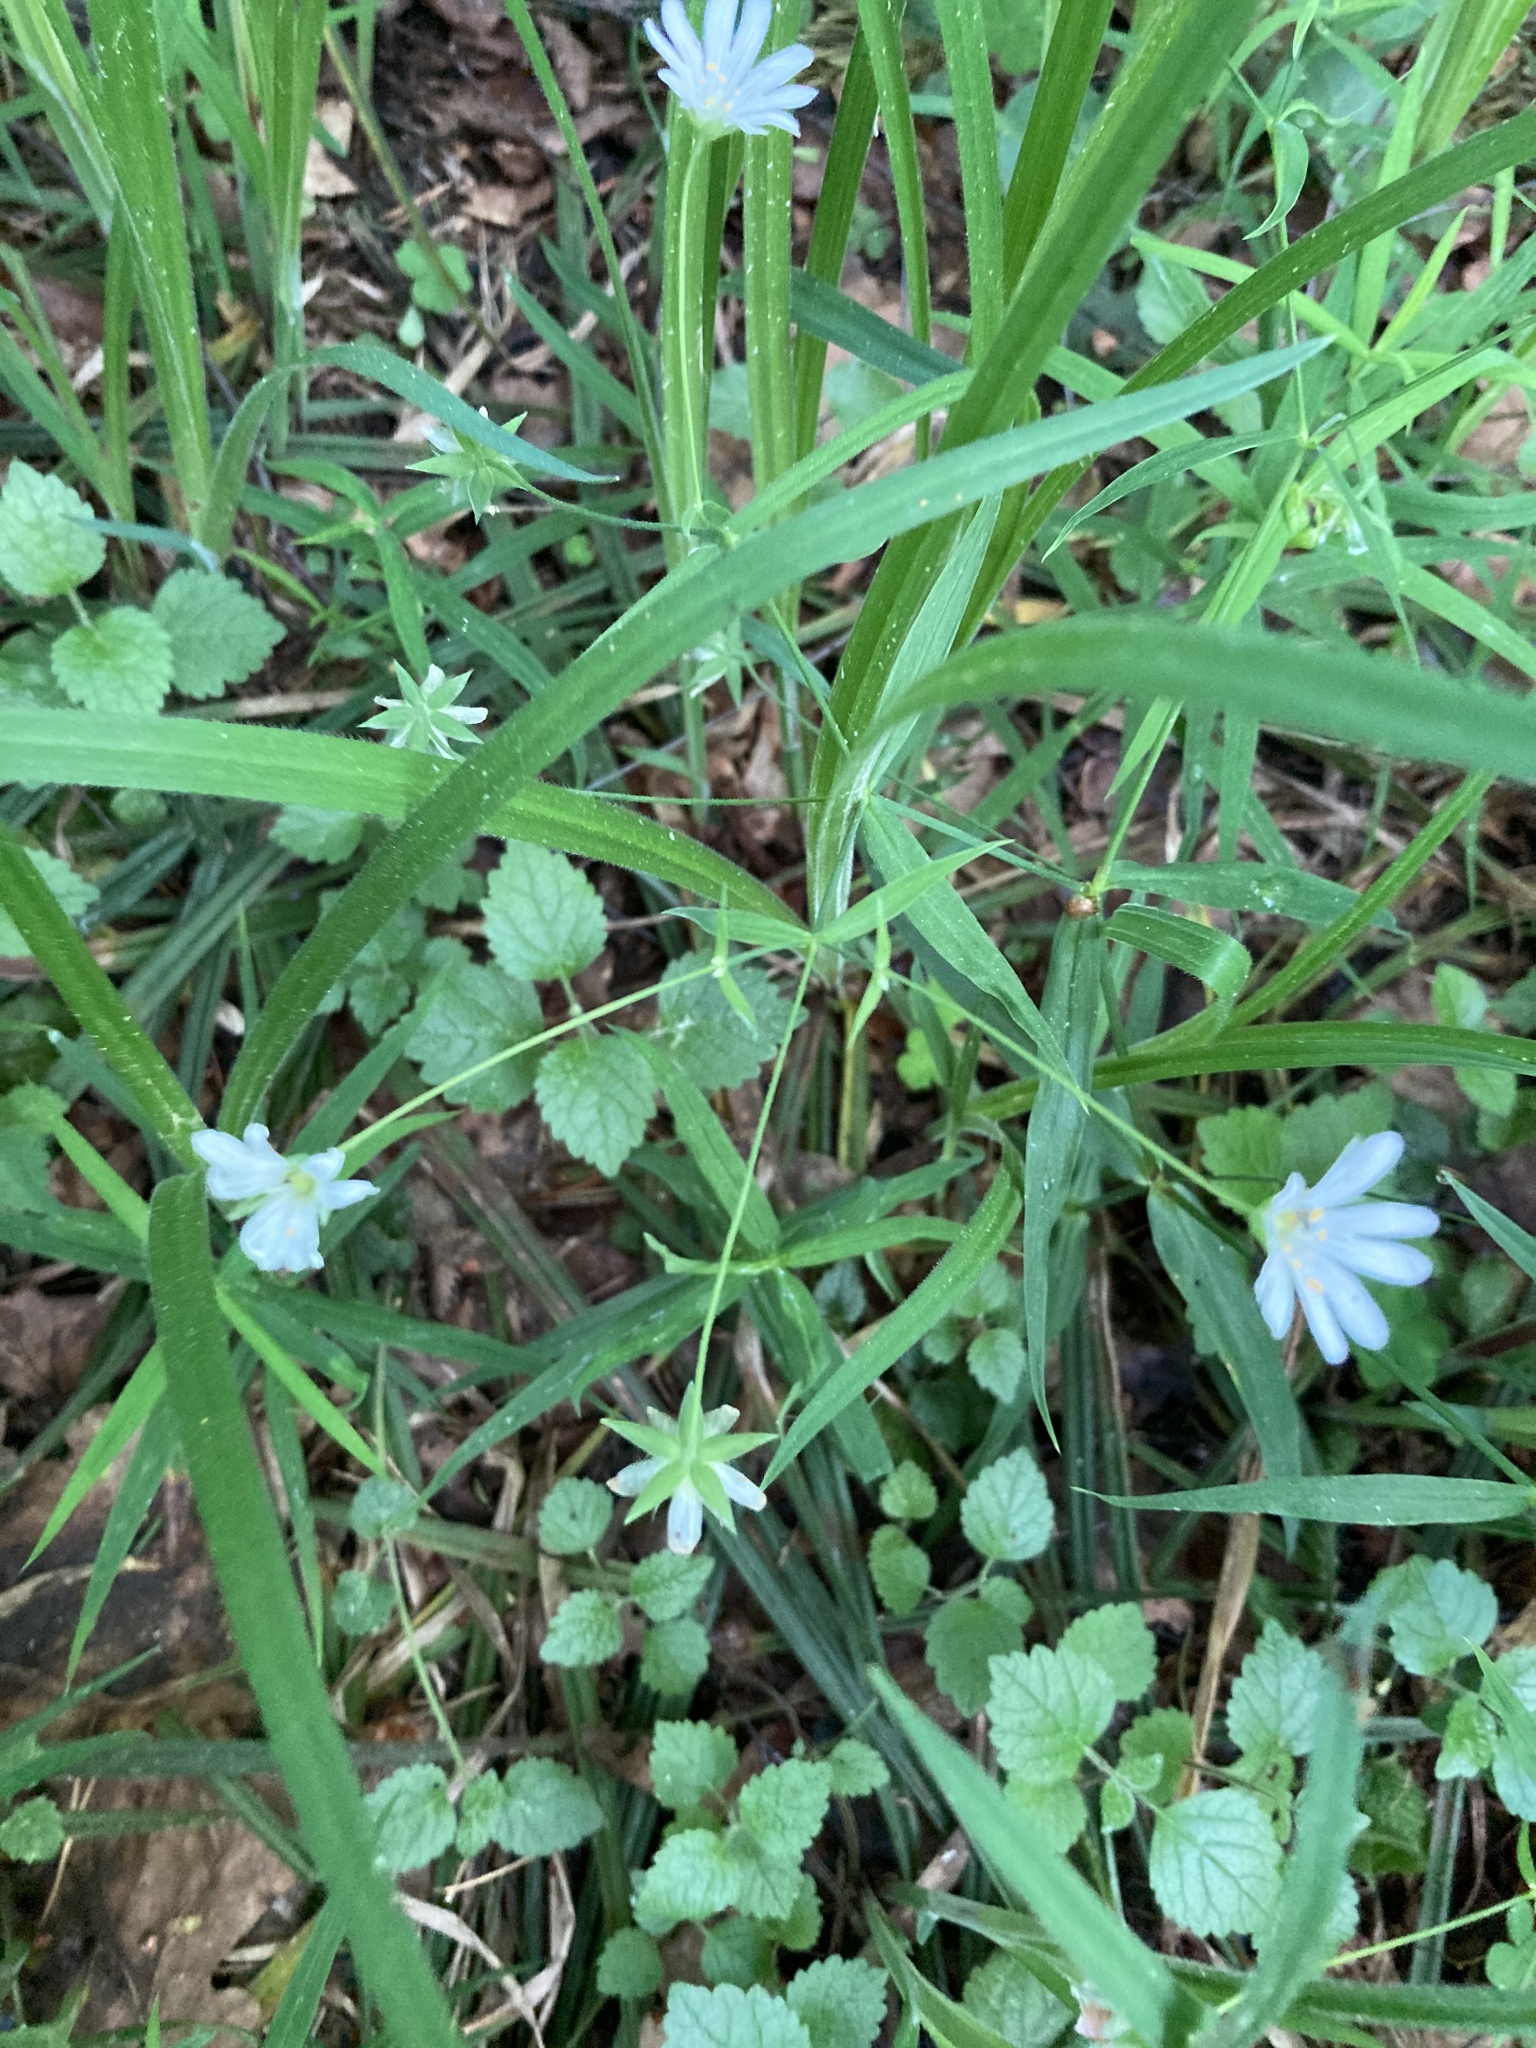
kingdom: Plantae
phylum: Tracheophyta
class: Magnoliopsida
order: Caryophyllales
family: Caryophyllaceae
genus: Rabelera
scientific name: Rabelera holostea
